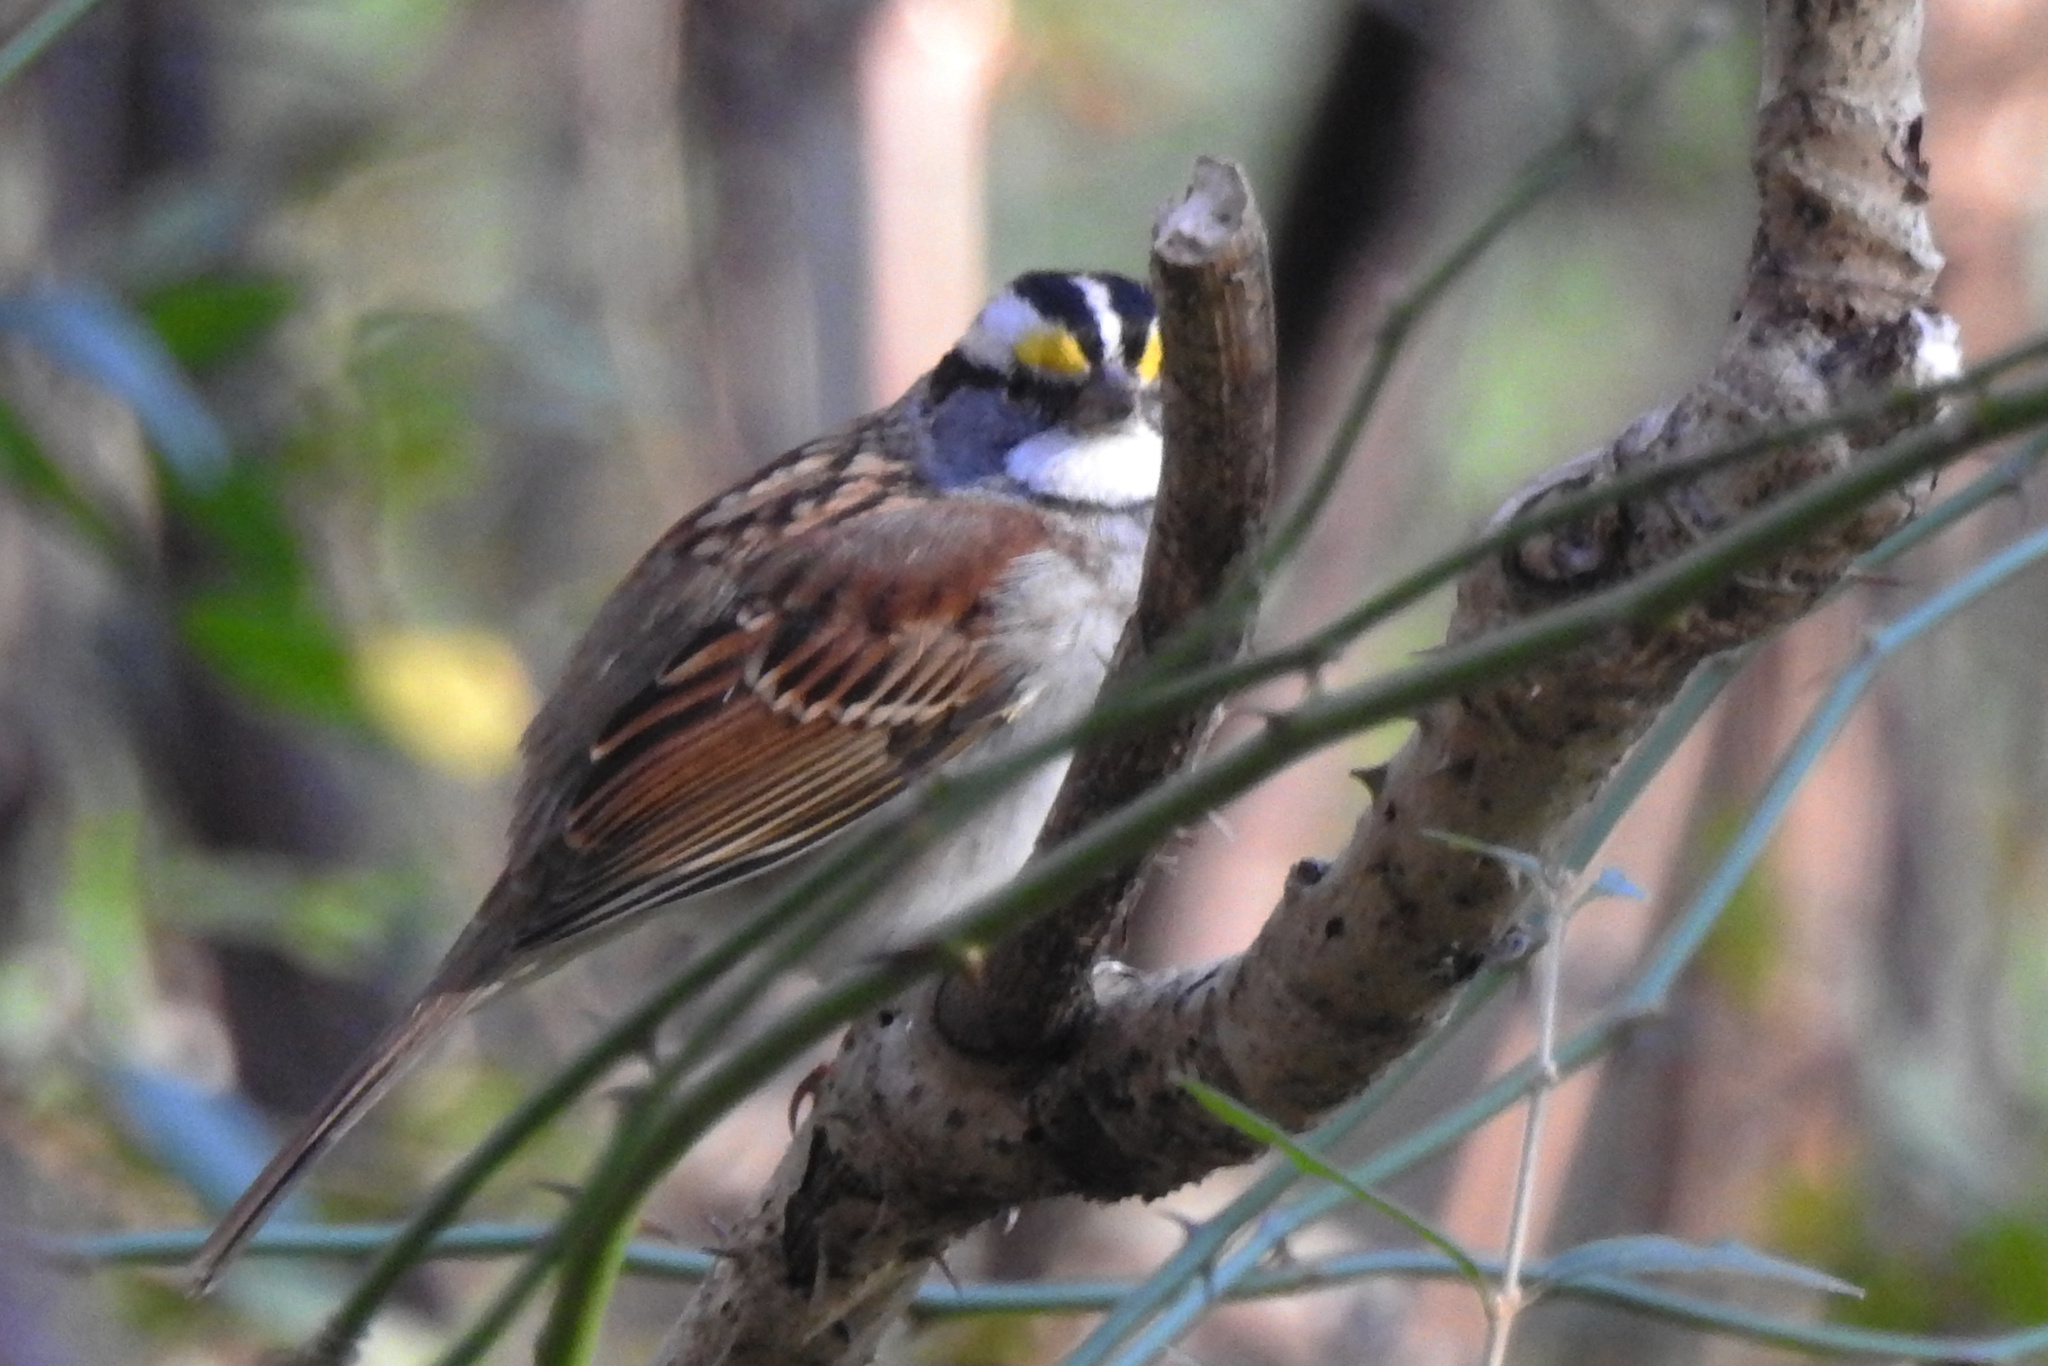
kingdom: Animalia
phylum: Chordata
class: Aves
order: Passeriformes
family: Passerellidae
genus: Zonotrichia
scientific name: Zonotrichia albicollis
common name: White-throated sparrow
